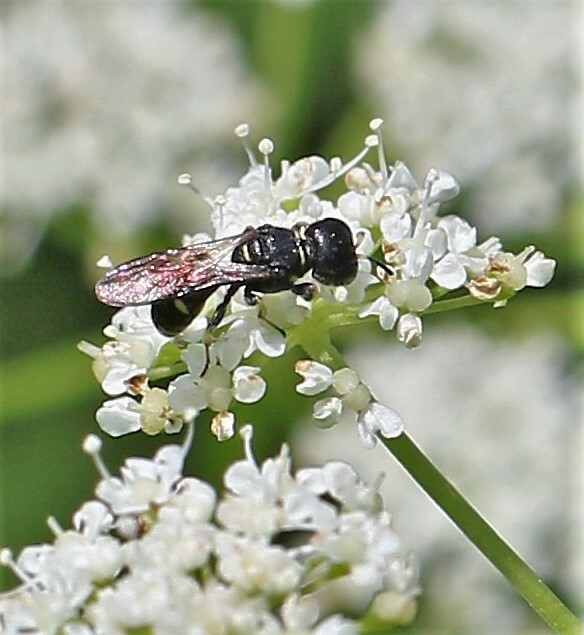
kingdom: Animalia
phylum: Arthropoda
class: Insecta
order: Hymenoptera
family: Crabronidae
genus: Ectemnius
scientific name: Ectemnius continuus
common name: Common ectemnius
